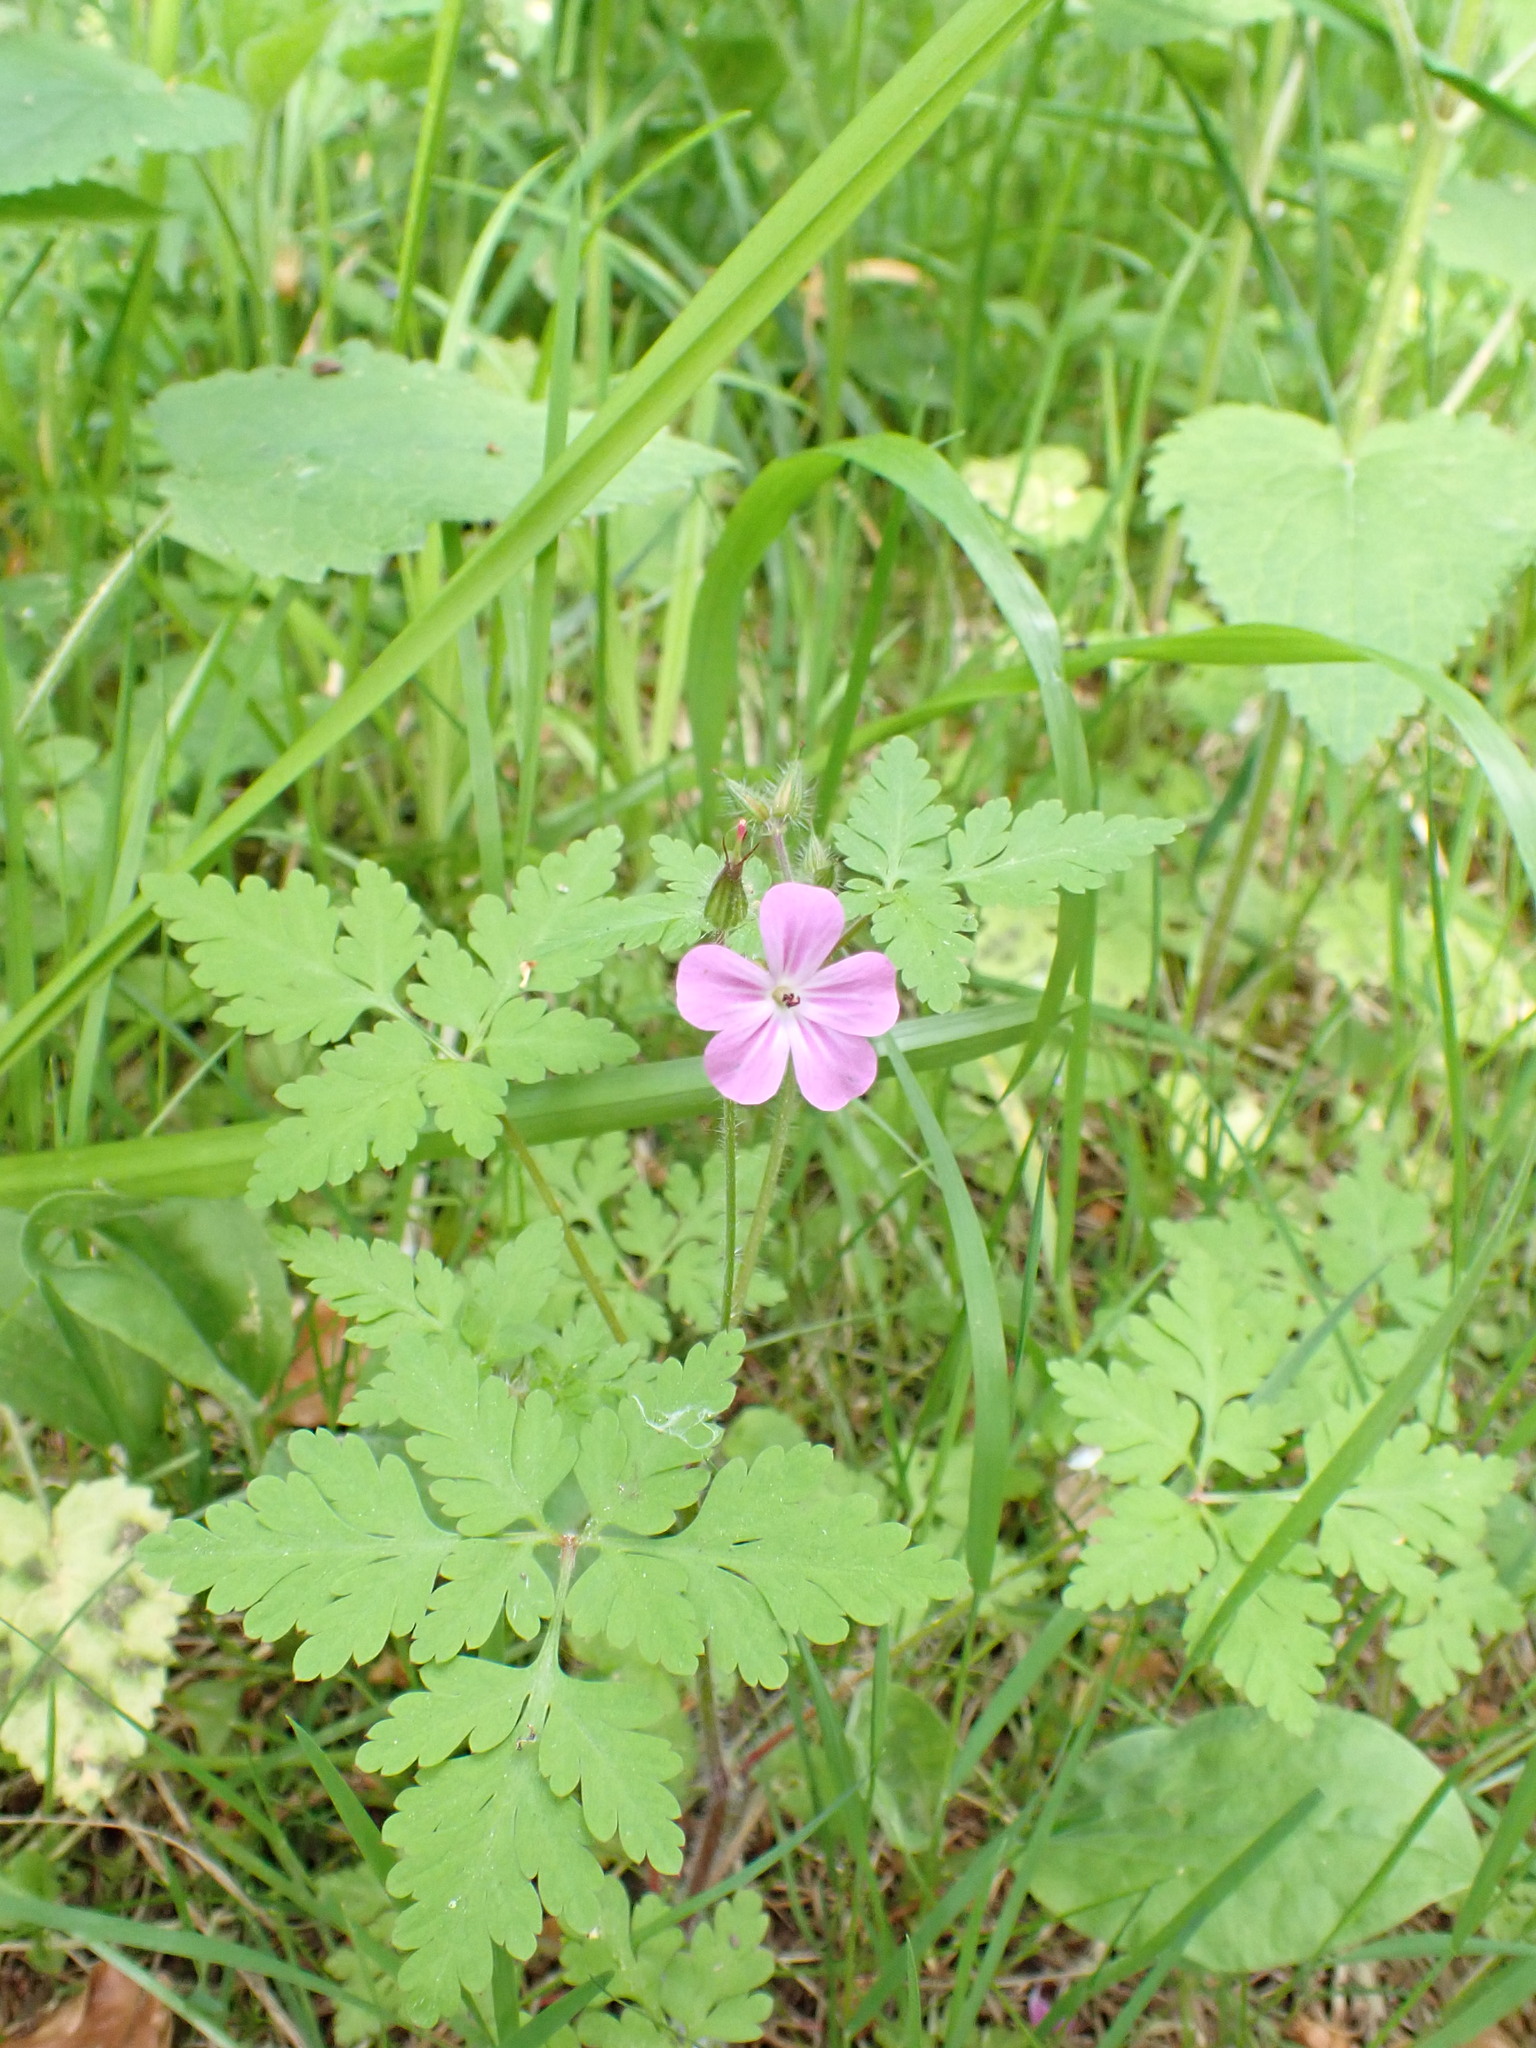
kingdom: Plantae
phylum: Tracheophyta
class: Magnoliopsida
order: Geraniales
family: Geraniaceae
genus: Geranium
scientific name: Geranium robertianum
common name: Herb-robert
